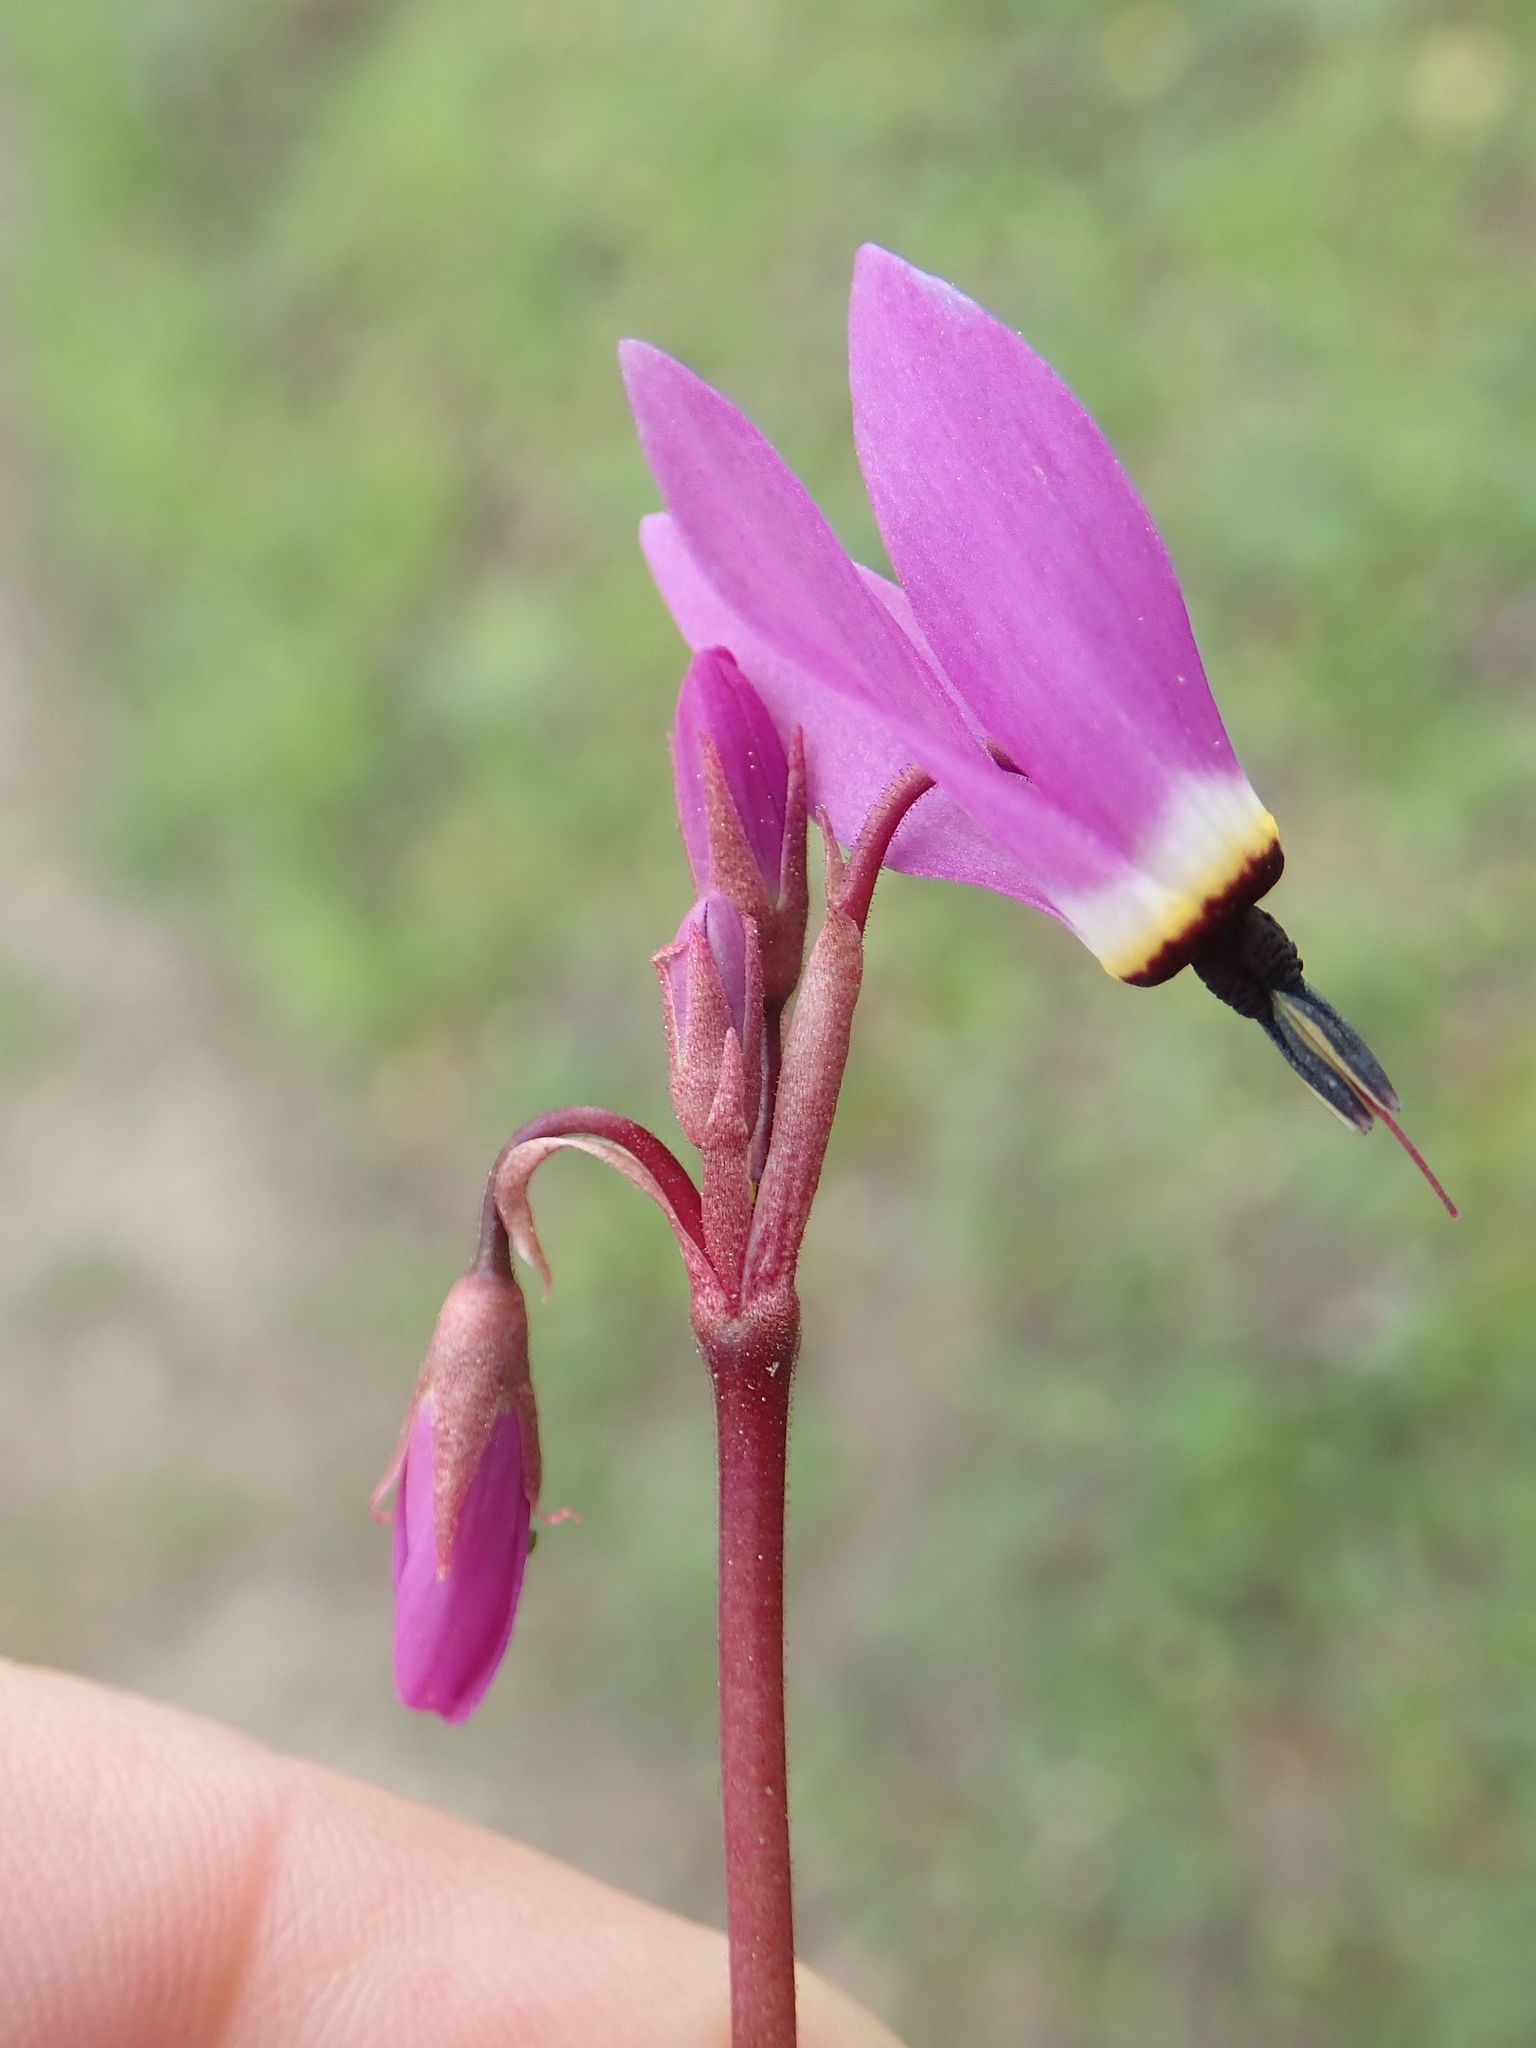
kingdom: Plantae
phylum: Tracheophyta
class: Magnoliopsida
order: Ericales
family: Primulaceae
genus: Dodecatheon
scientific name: Dodecatheon hendersonii
